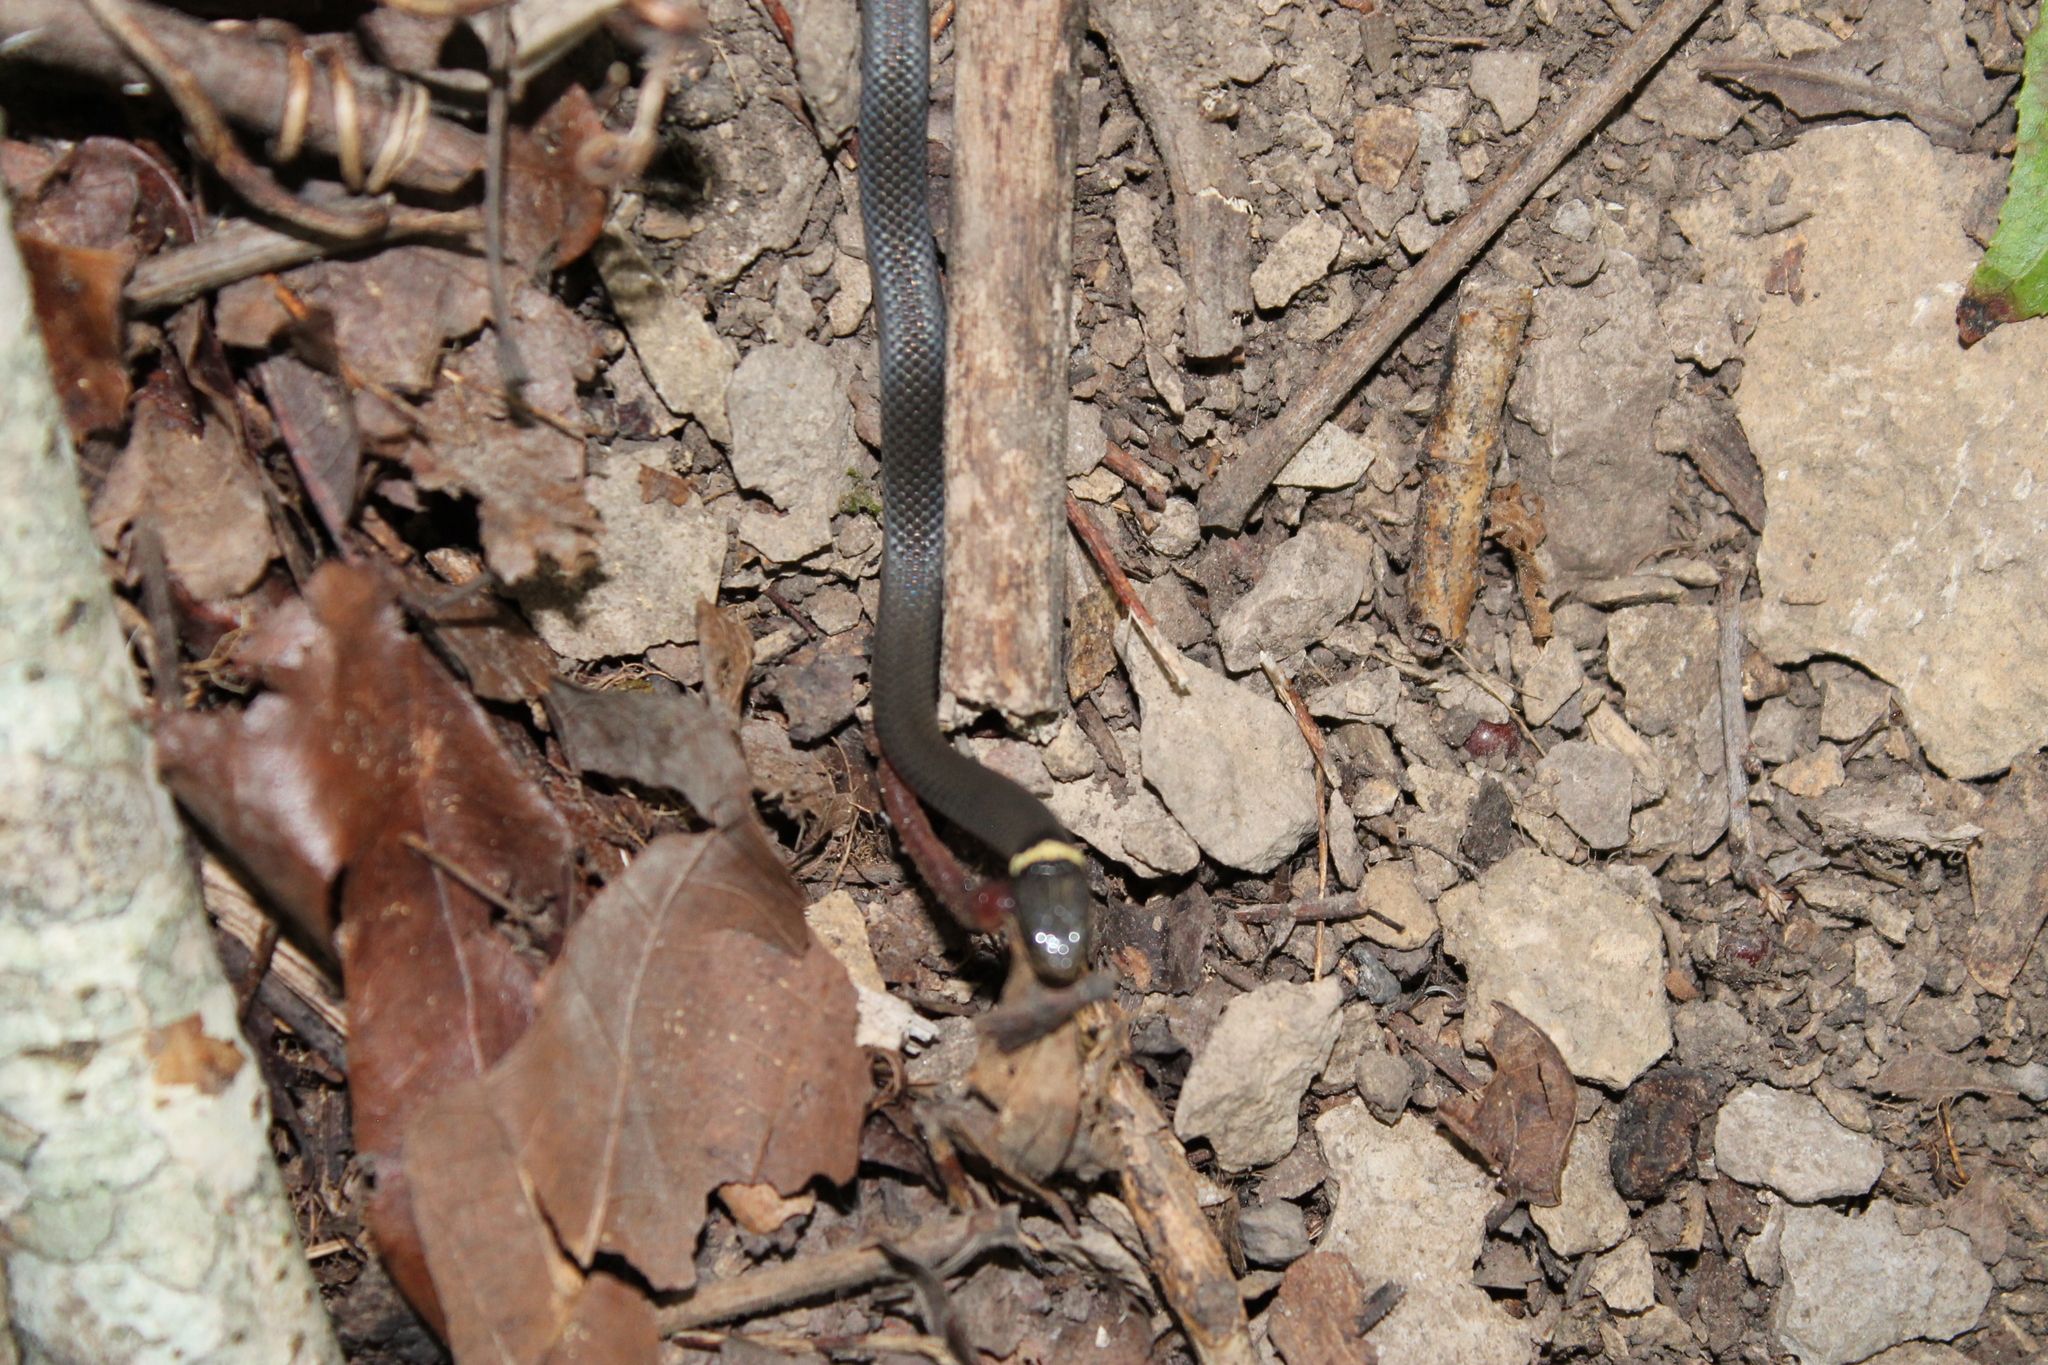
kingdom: Animalia
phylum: Chordata
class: Squamata
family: Colubridae
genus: Diadophis
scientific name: Diadophis punctatus
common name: Ringneck snake
